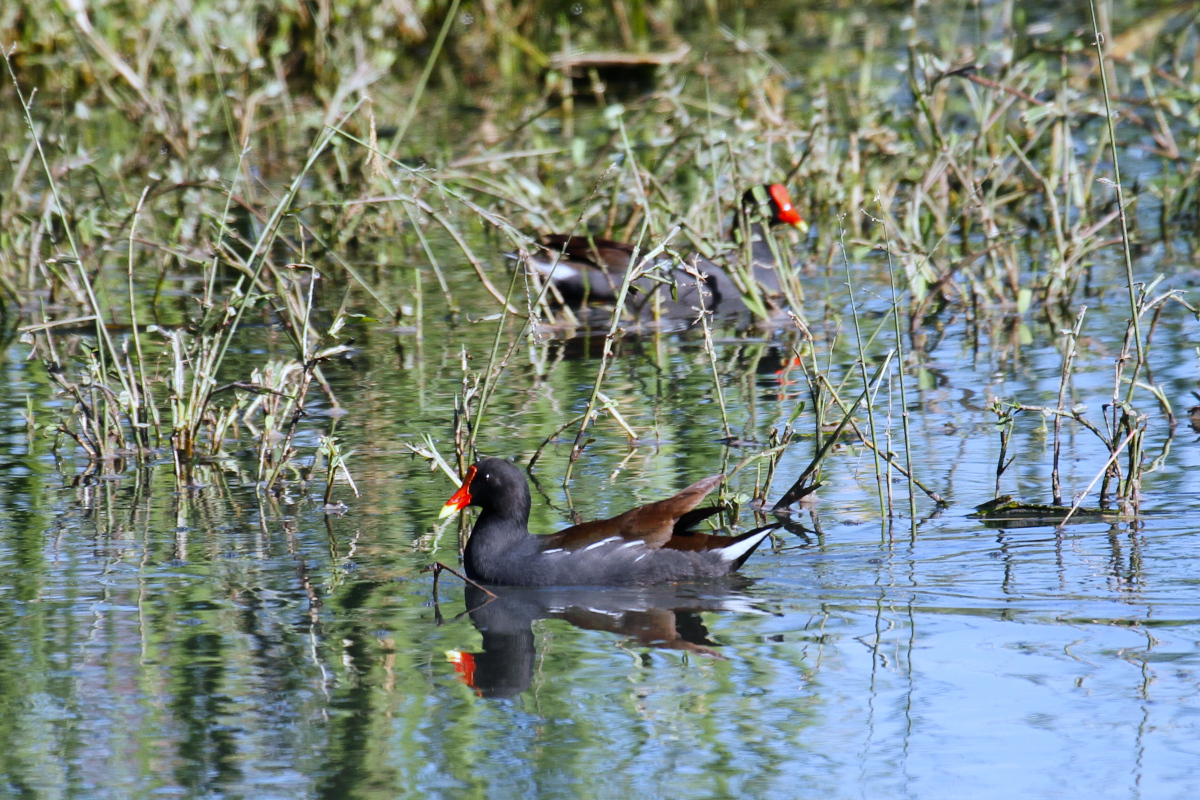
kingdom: Animalia
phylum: Chordata
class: Aves
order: Gruiformes
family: Rallidae
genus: Gallinula
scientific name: Gallinula chloropus
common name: Common moorhen
